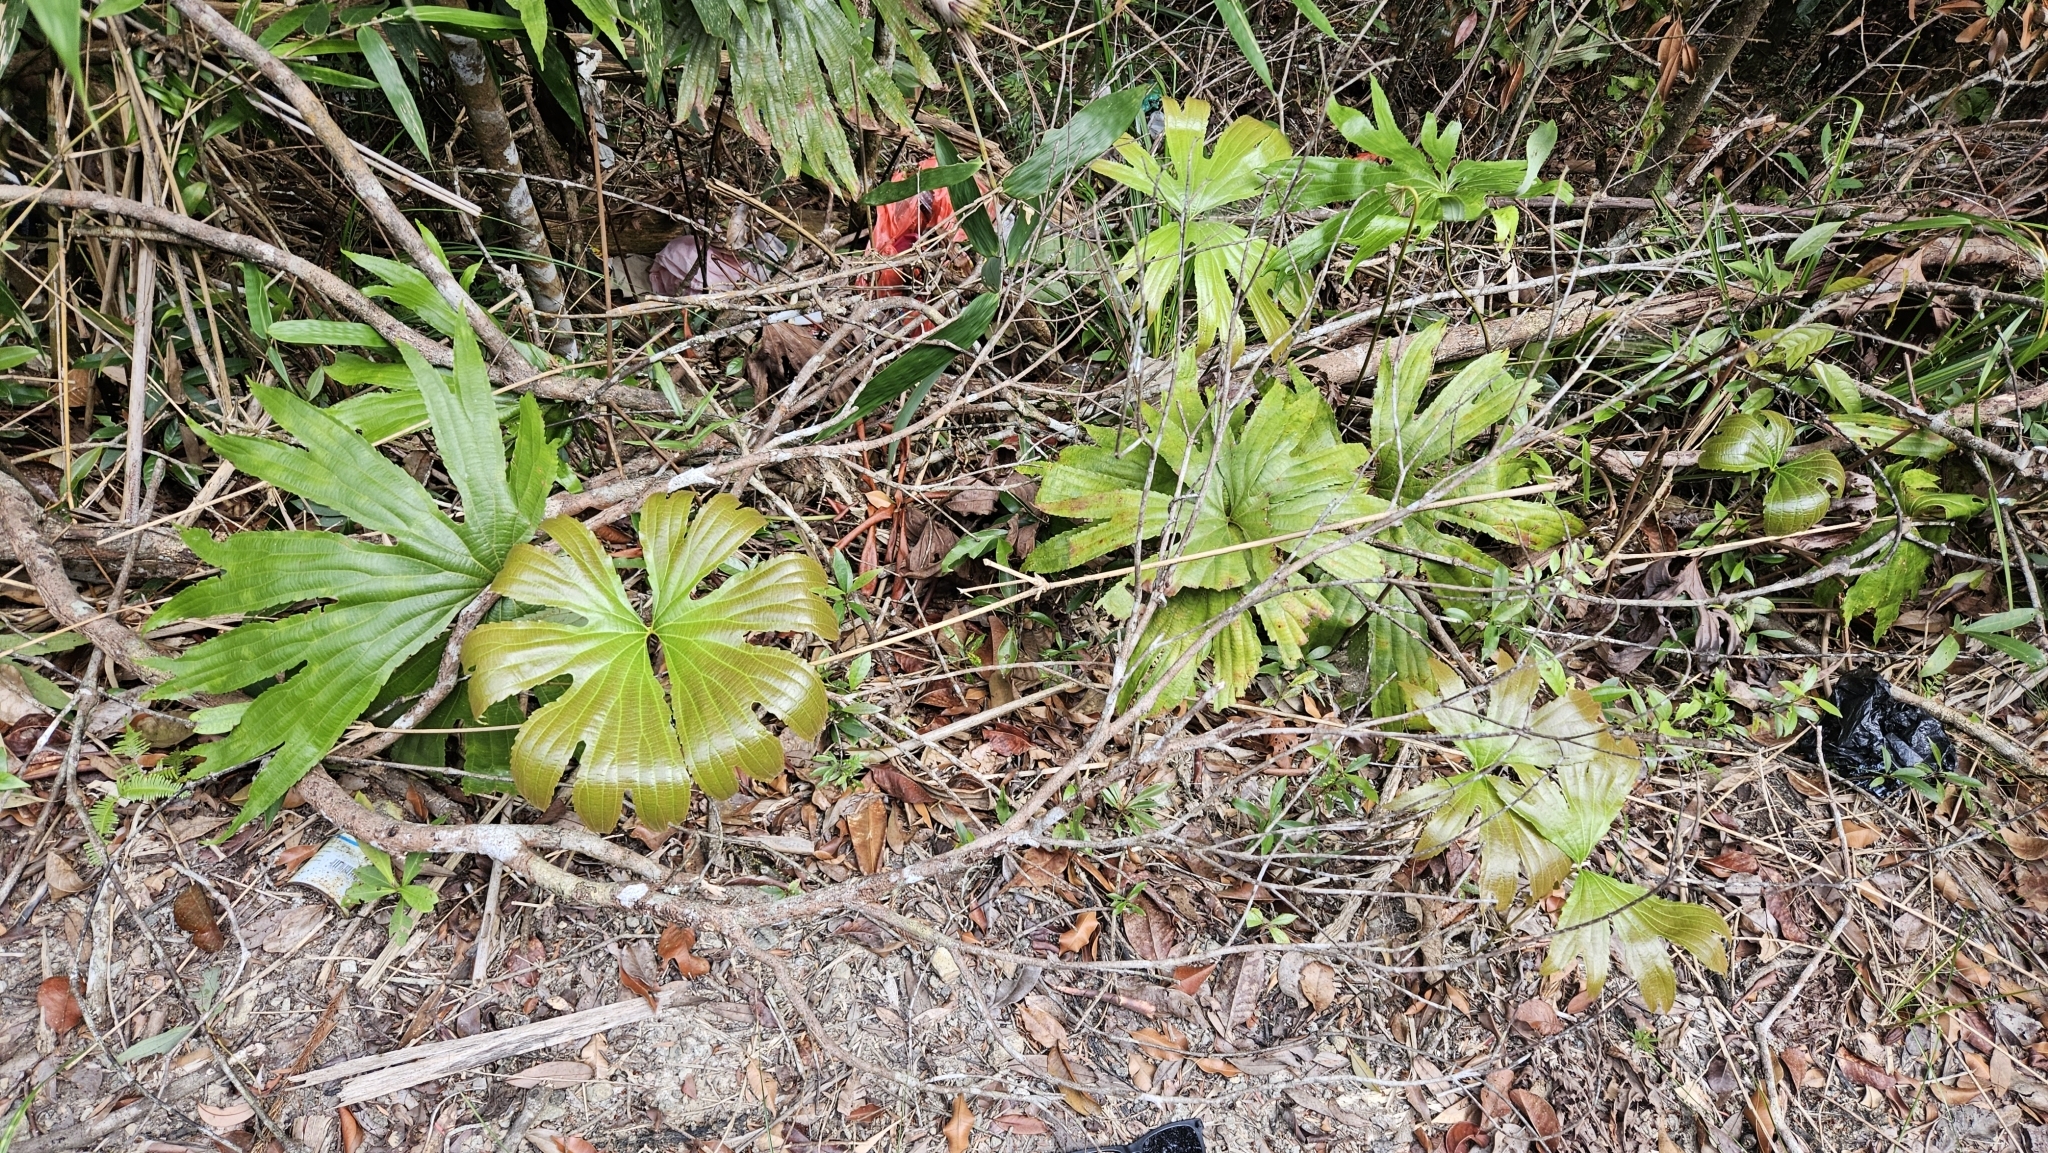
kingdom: Plantae
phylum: Tracheophyta
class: Polypodiopsida
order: Gleicheniales
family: Dipteridaceae
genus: Dipteris
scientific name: Dipteris conjugata
